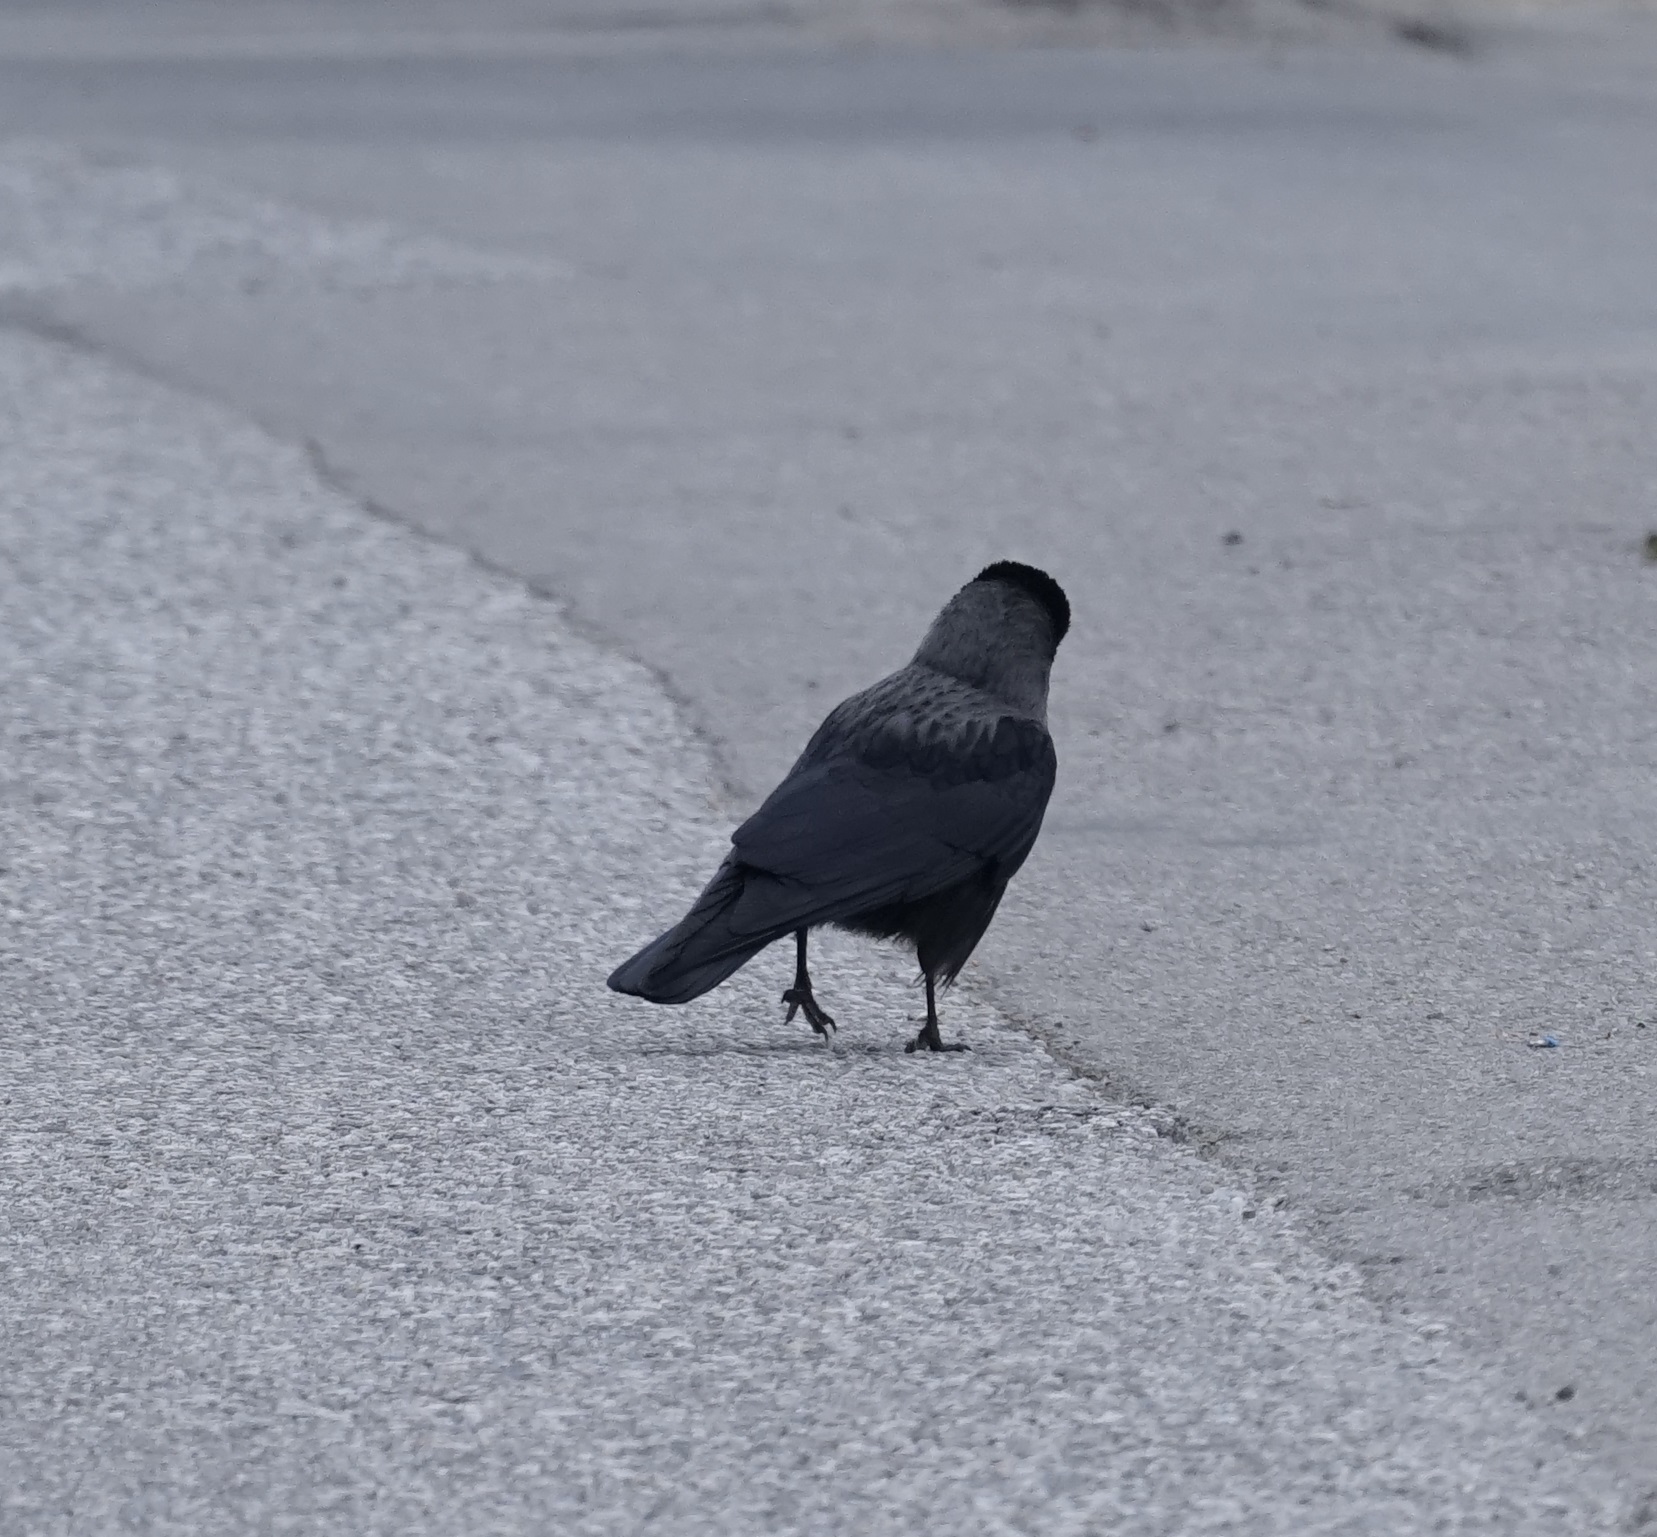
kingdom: Animalia
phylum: Chordata
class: Aves
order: Passeriformes
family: Corvidae
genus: Coloeus
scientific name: Coloeus monedula
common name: Western jackdaw
